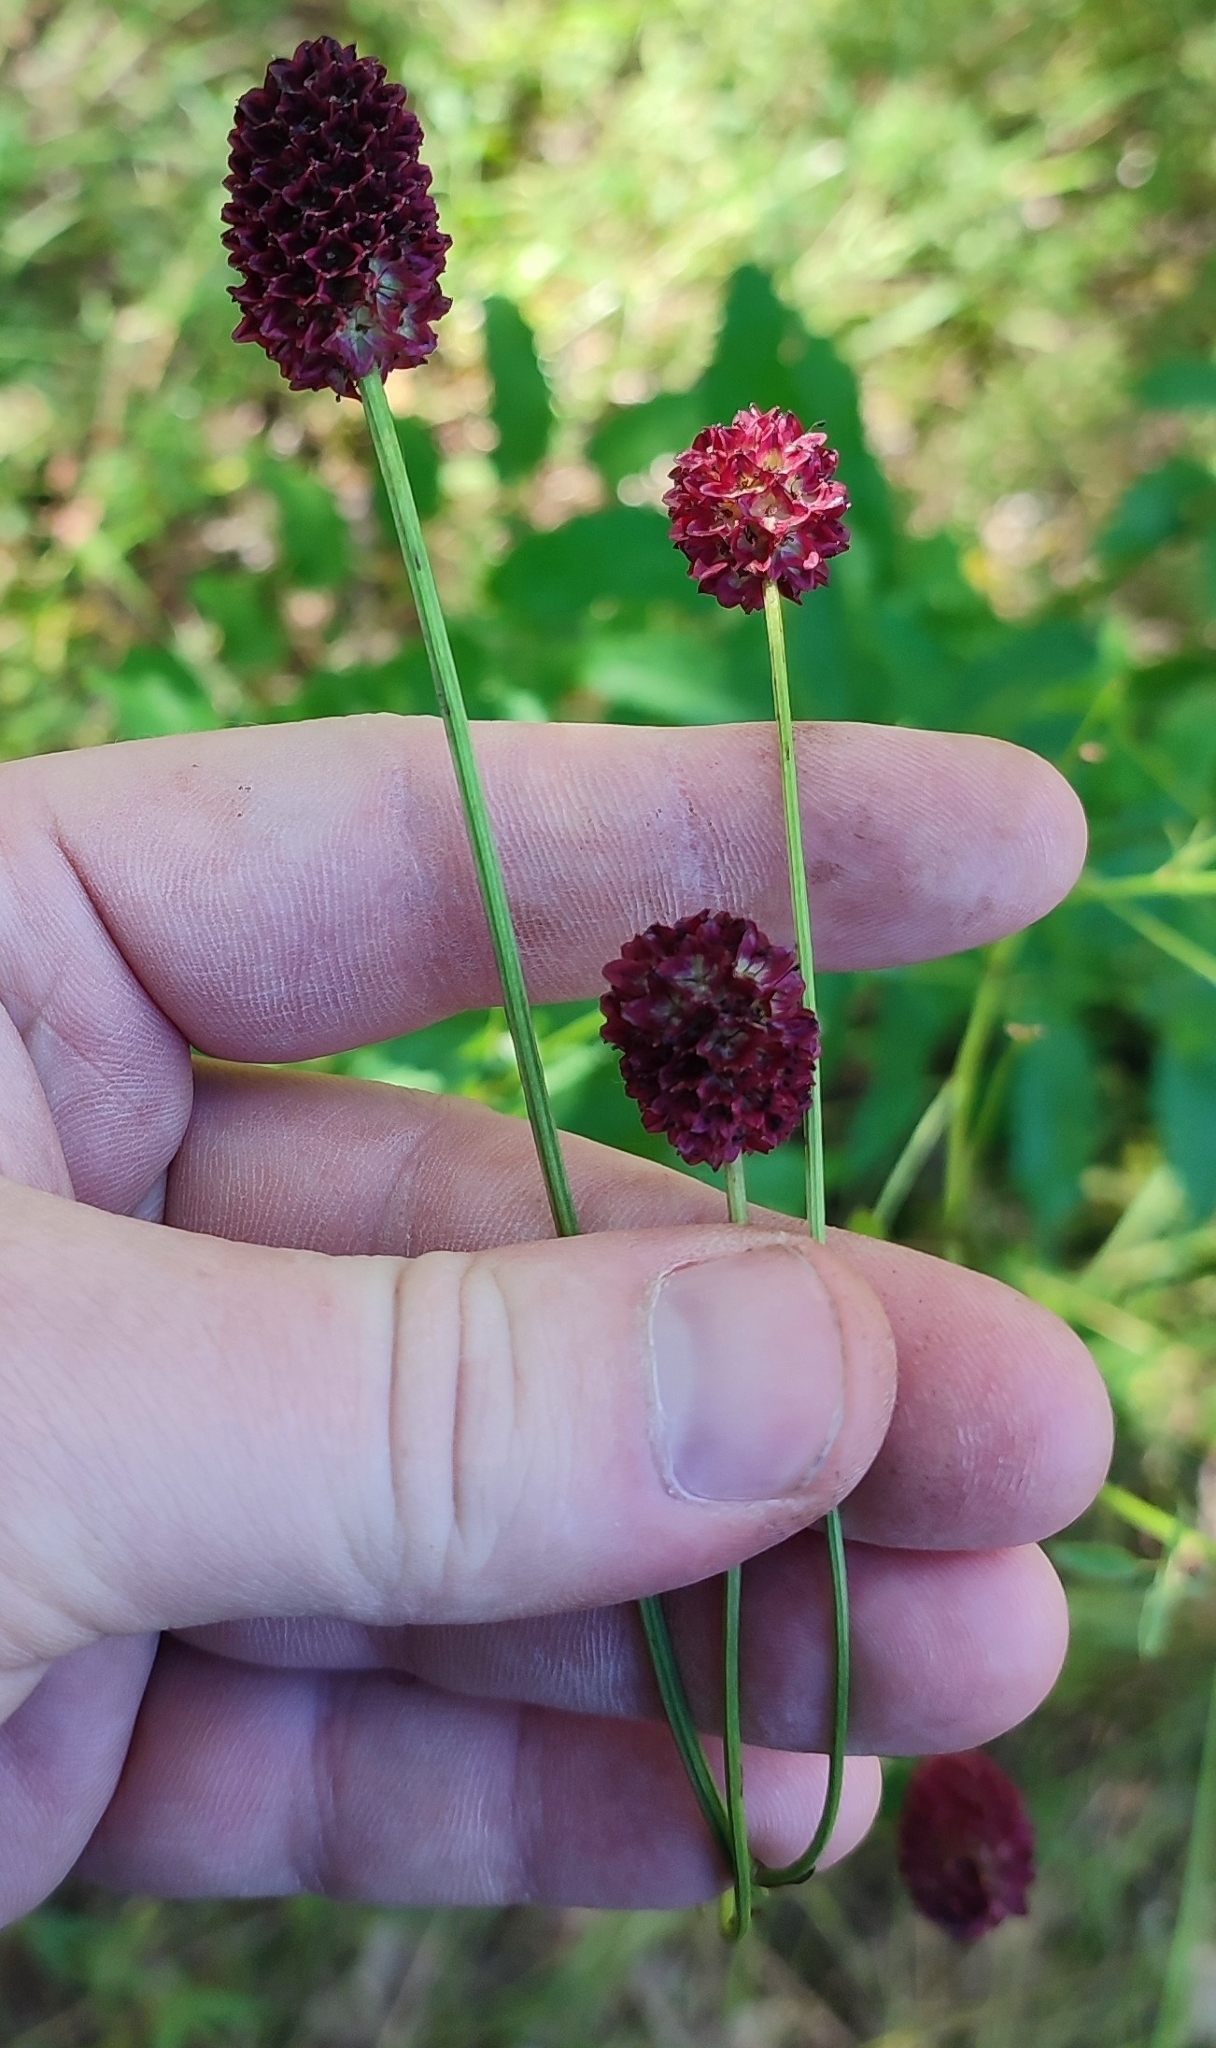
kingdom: Plantae
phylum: Tracheophyta
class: Magnoliopsida
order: Rosales
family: Rosaceae
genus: Sanguisorba
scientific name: Sanguisorba officinalis
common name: Great burnet
